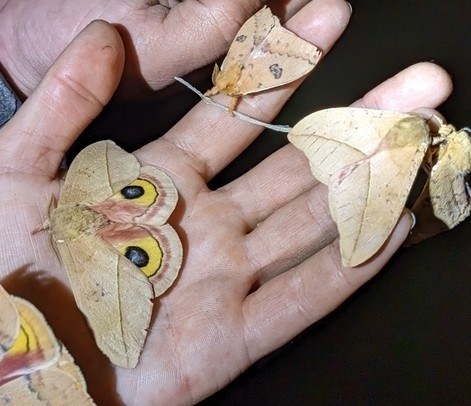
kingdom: Animalia
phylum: Arthropoda
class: Insecta
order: Lepidoptera
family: Saturniidae
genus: Automeris
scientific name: Automeris cecrops
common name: Cecrops eyed silkmoth
